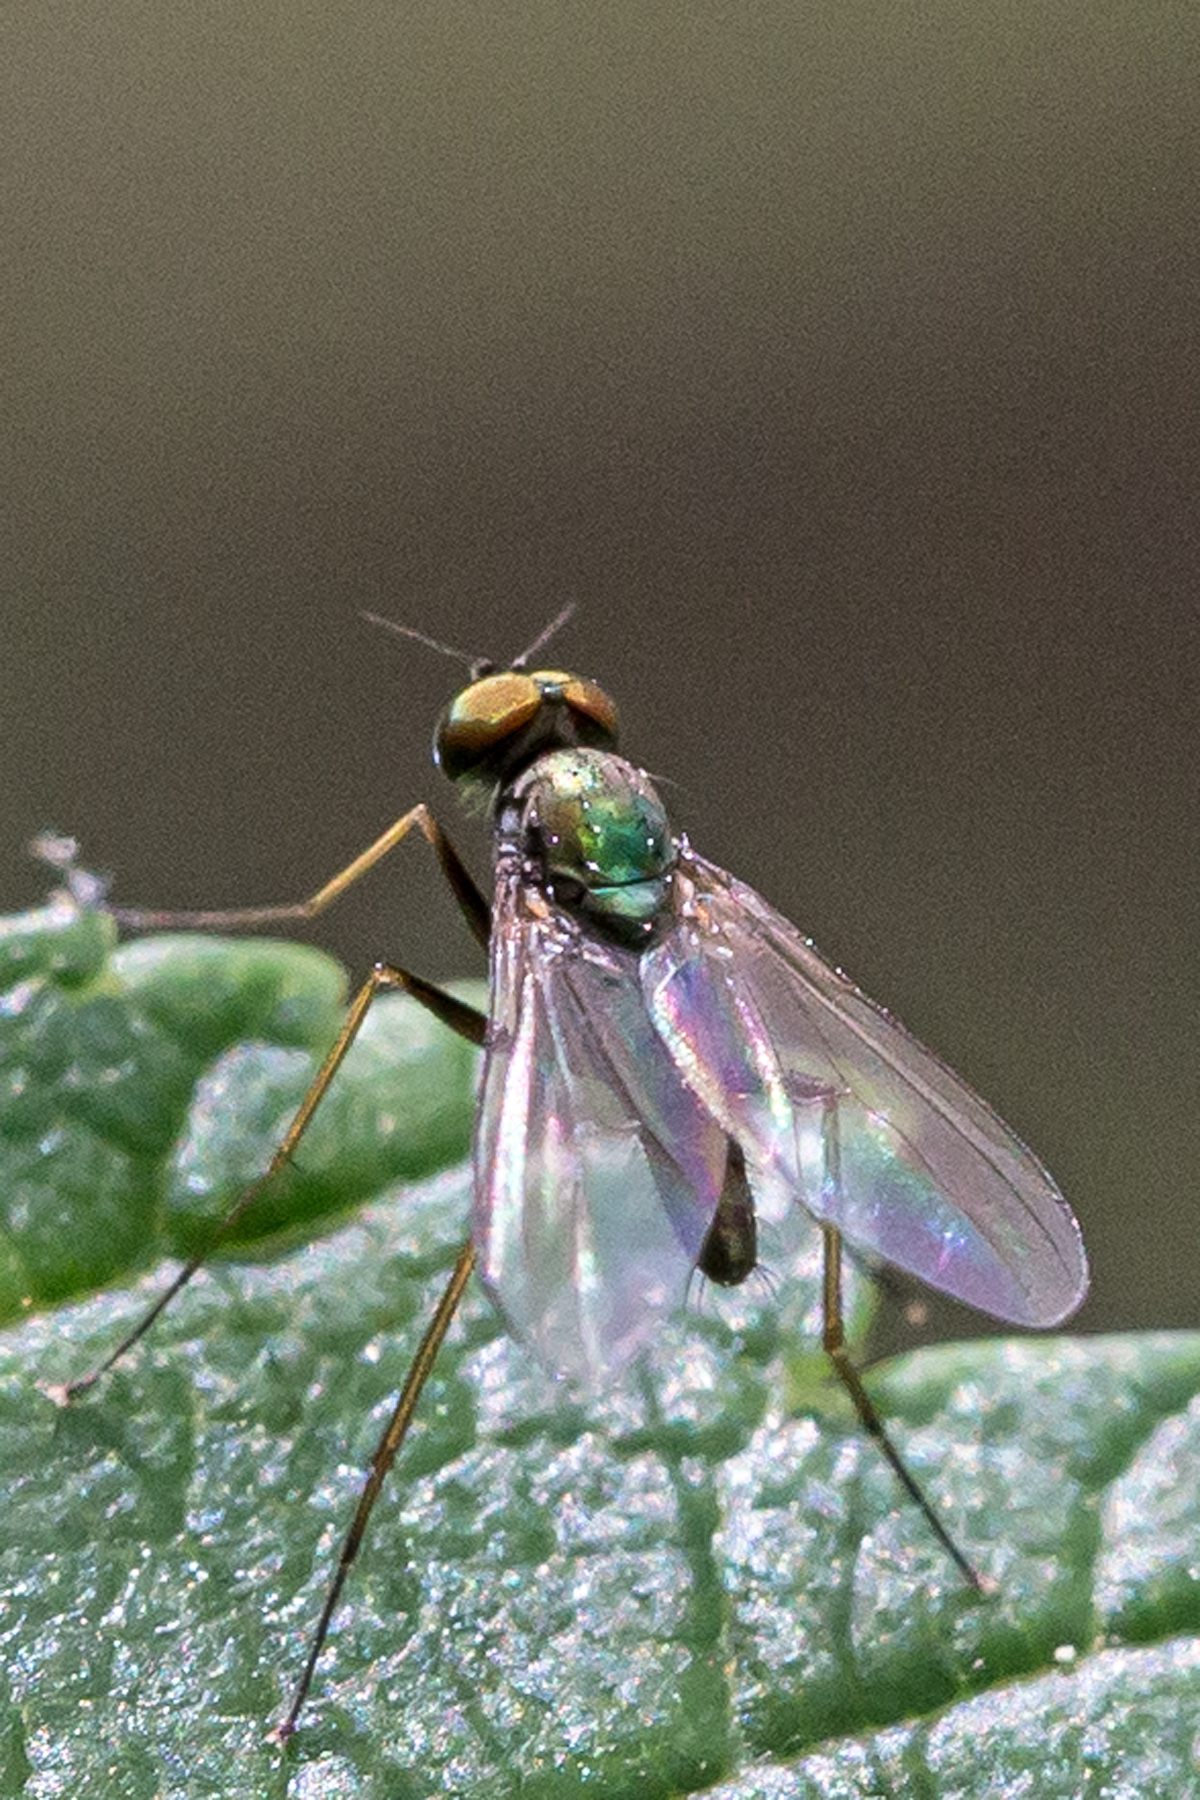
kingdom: Animalia
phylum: Arthropoda
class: Insecta
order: Diptera
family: Dolichopodidae
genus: Chrysotus
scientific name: Chrysotus spectabilis
